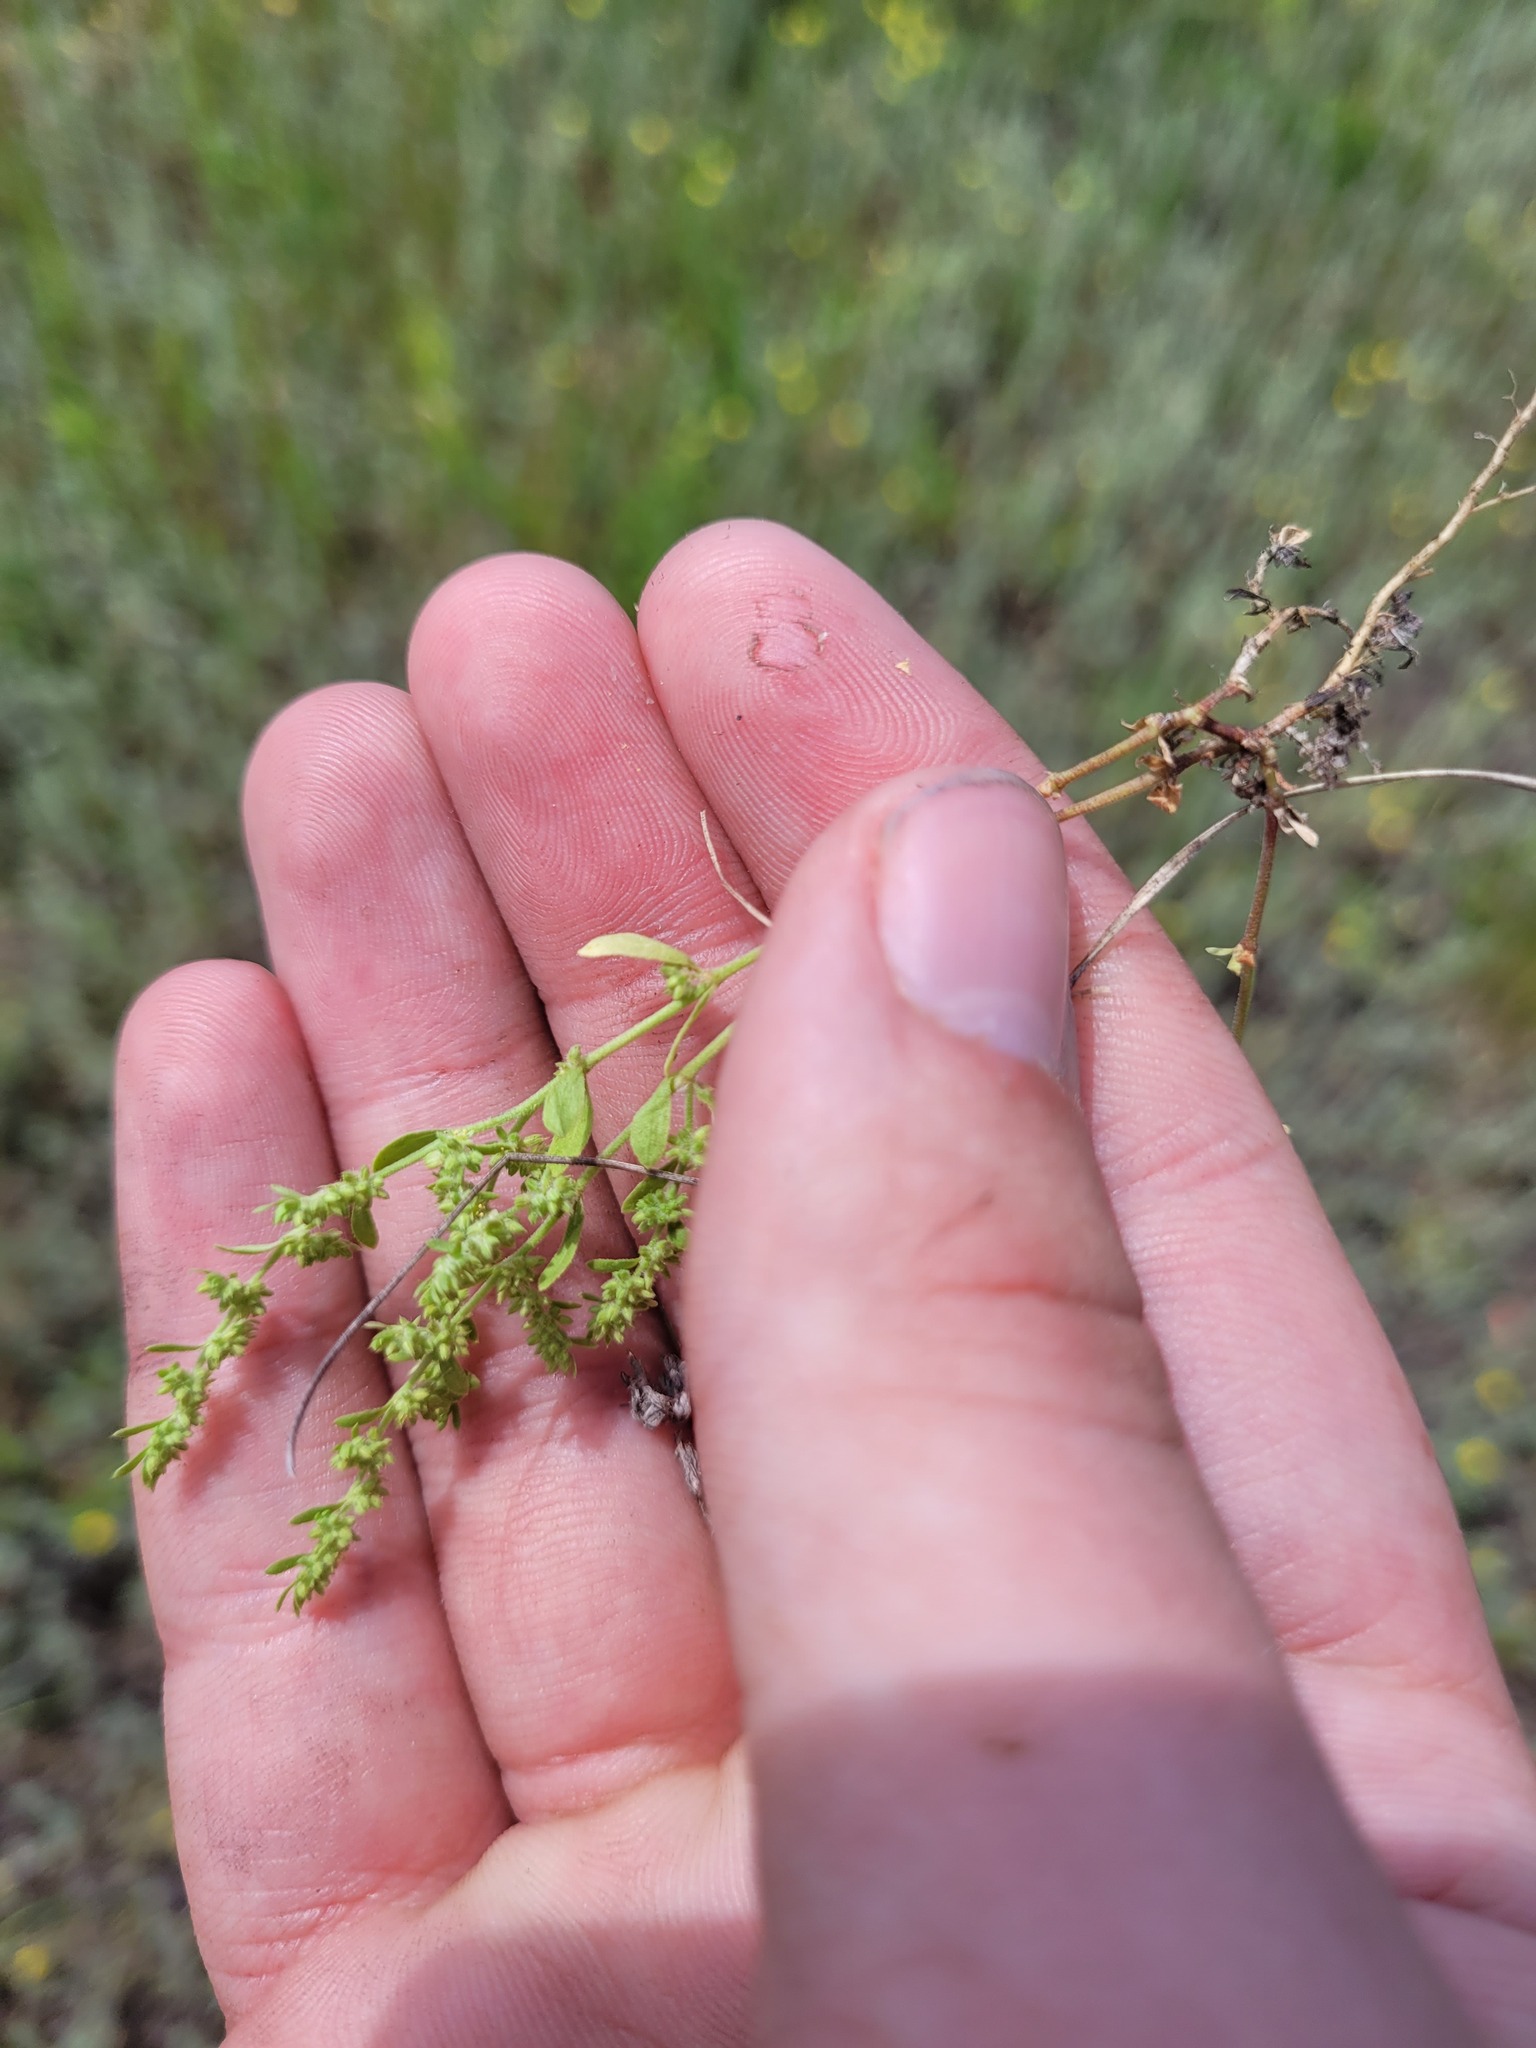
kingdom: Plantae
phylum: Tracheophyta
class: Magnoliopsida
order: Caryophyllales
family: Caryophyllaceae
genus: Herniaria
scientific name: Herniaria polygama
